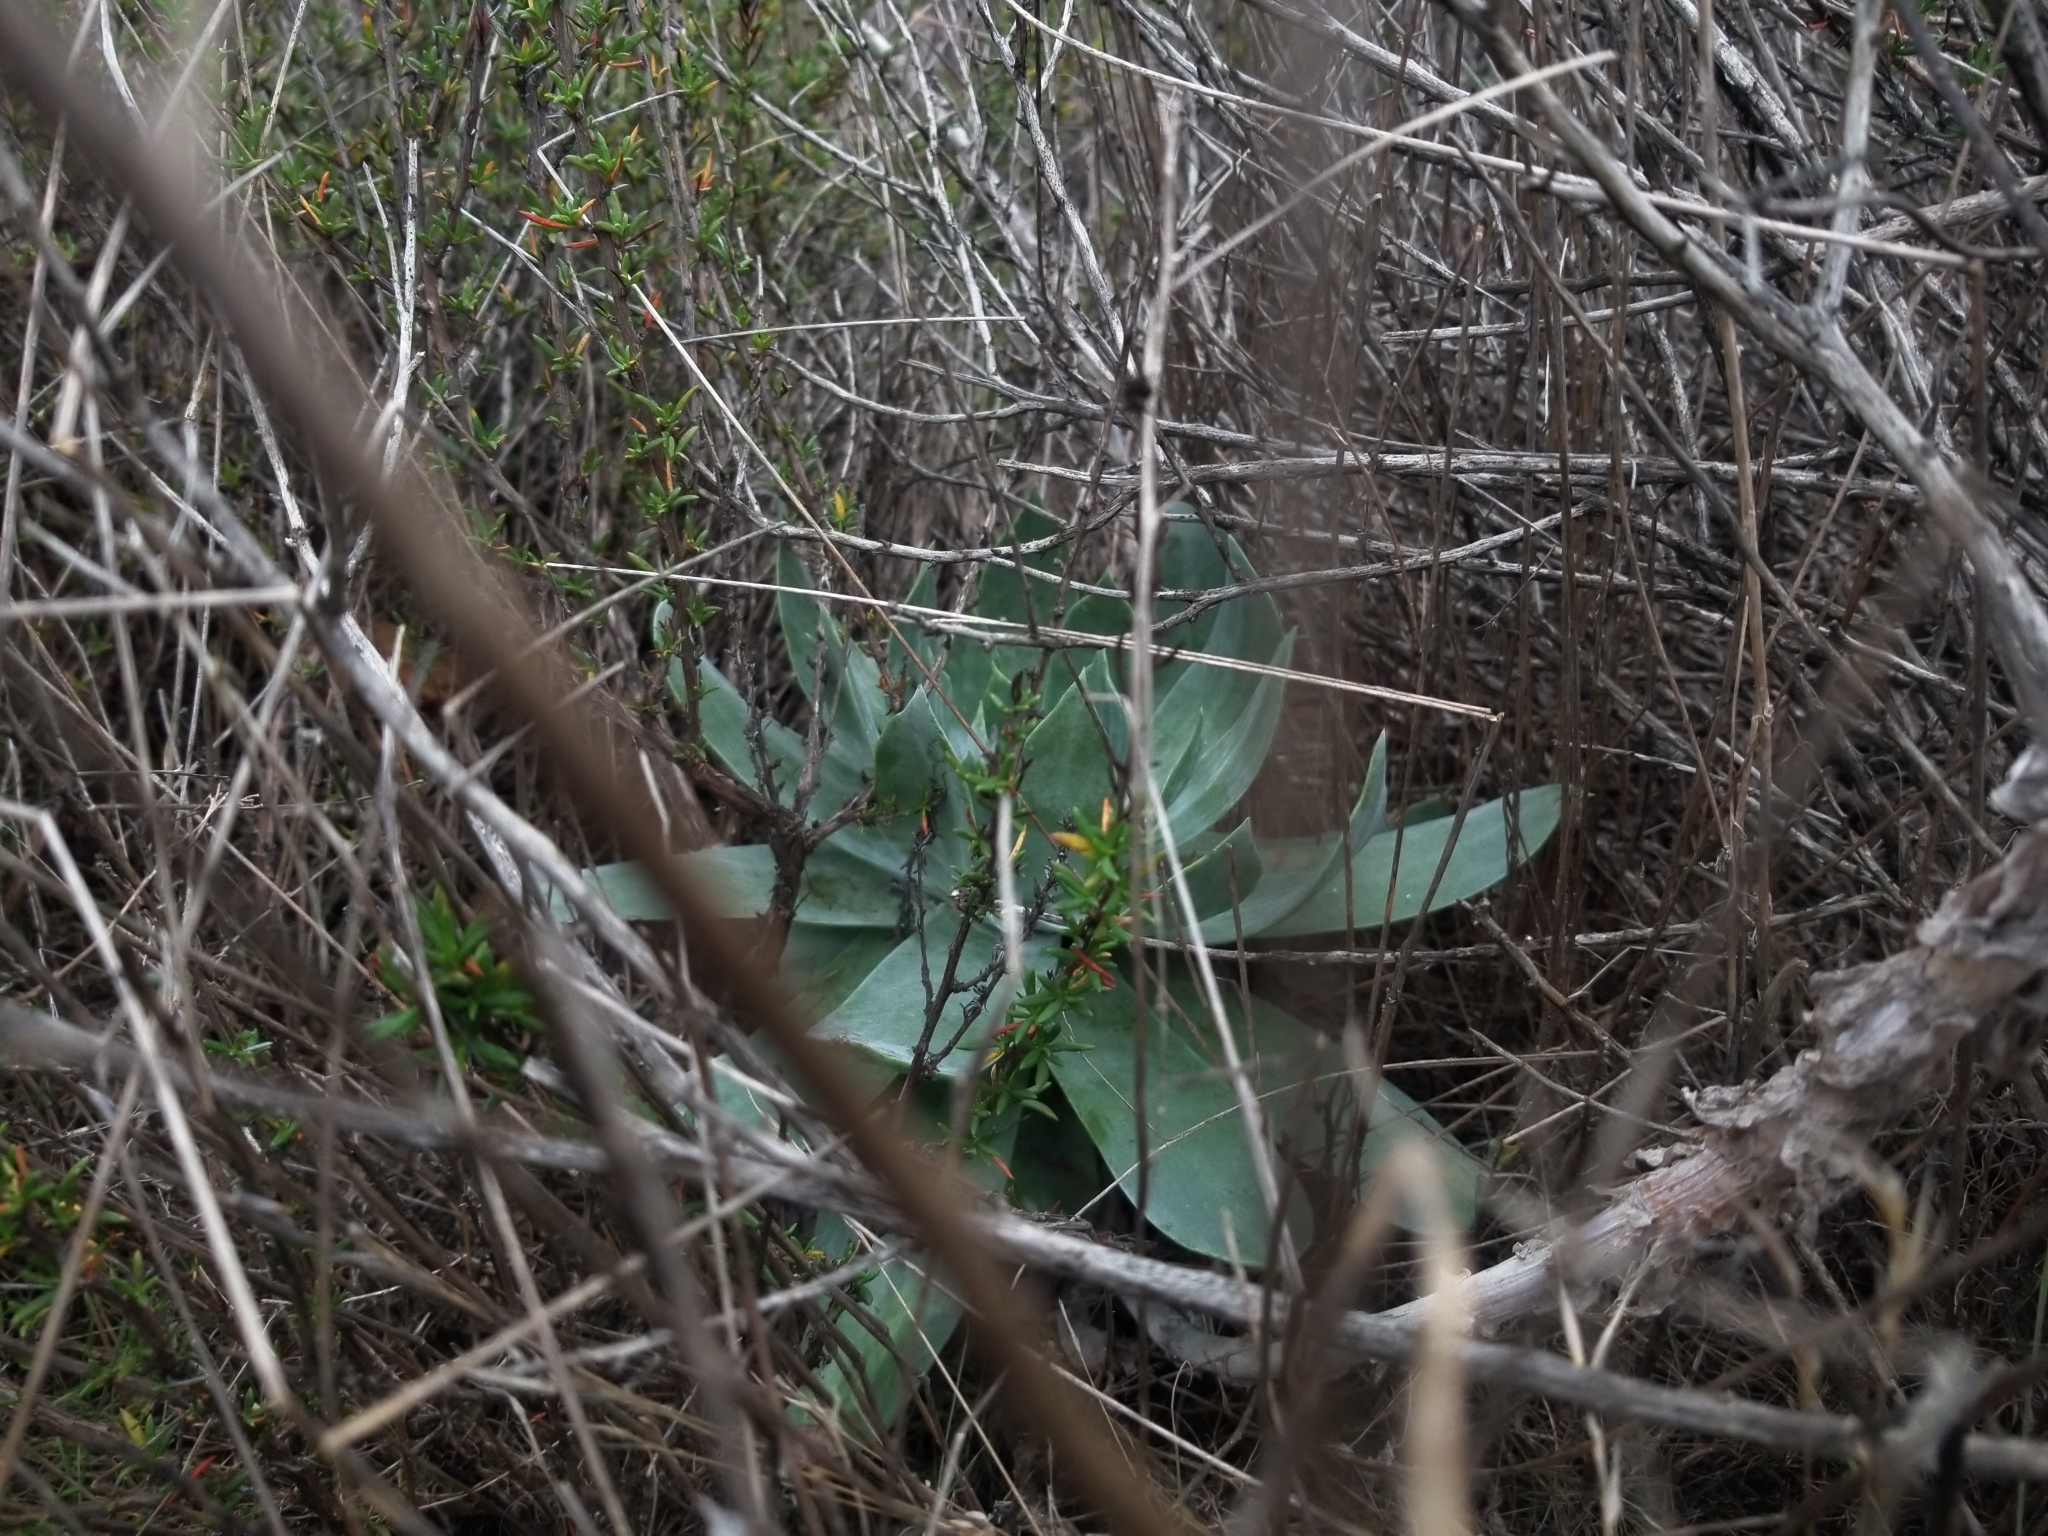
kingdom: Plantae
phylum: Tracheophyta
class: Magnoliopsida
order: Saxifragales
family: Crassulaceae
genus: Dudleya
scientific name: Dudleya pulverulenta
